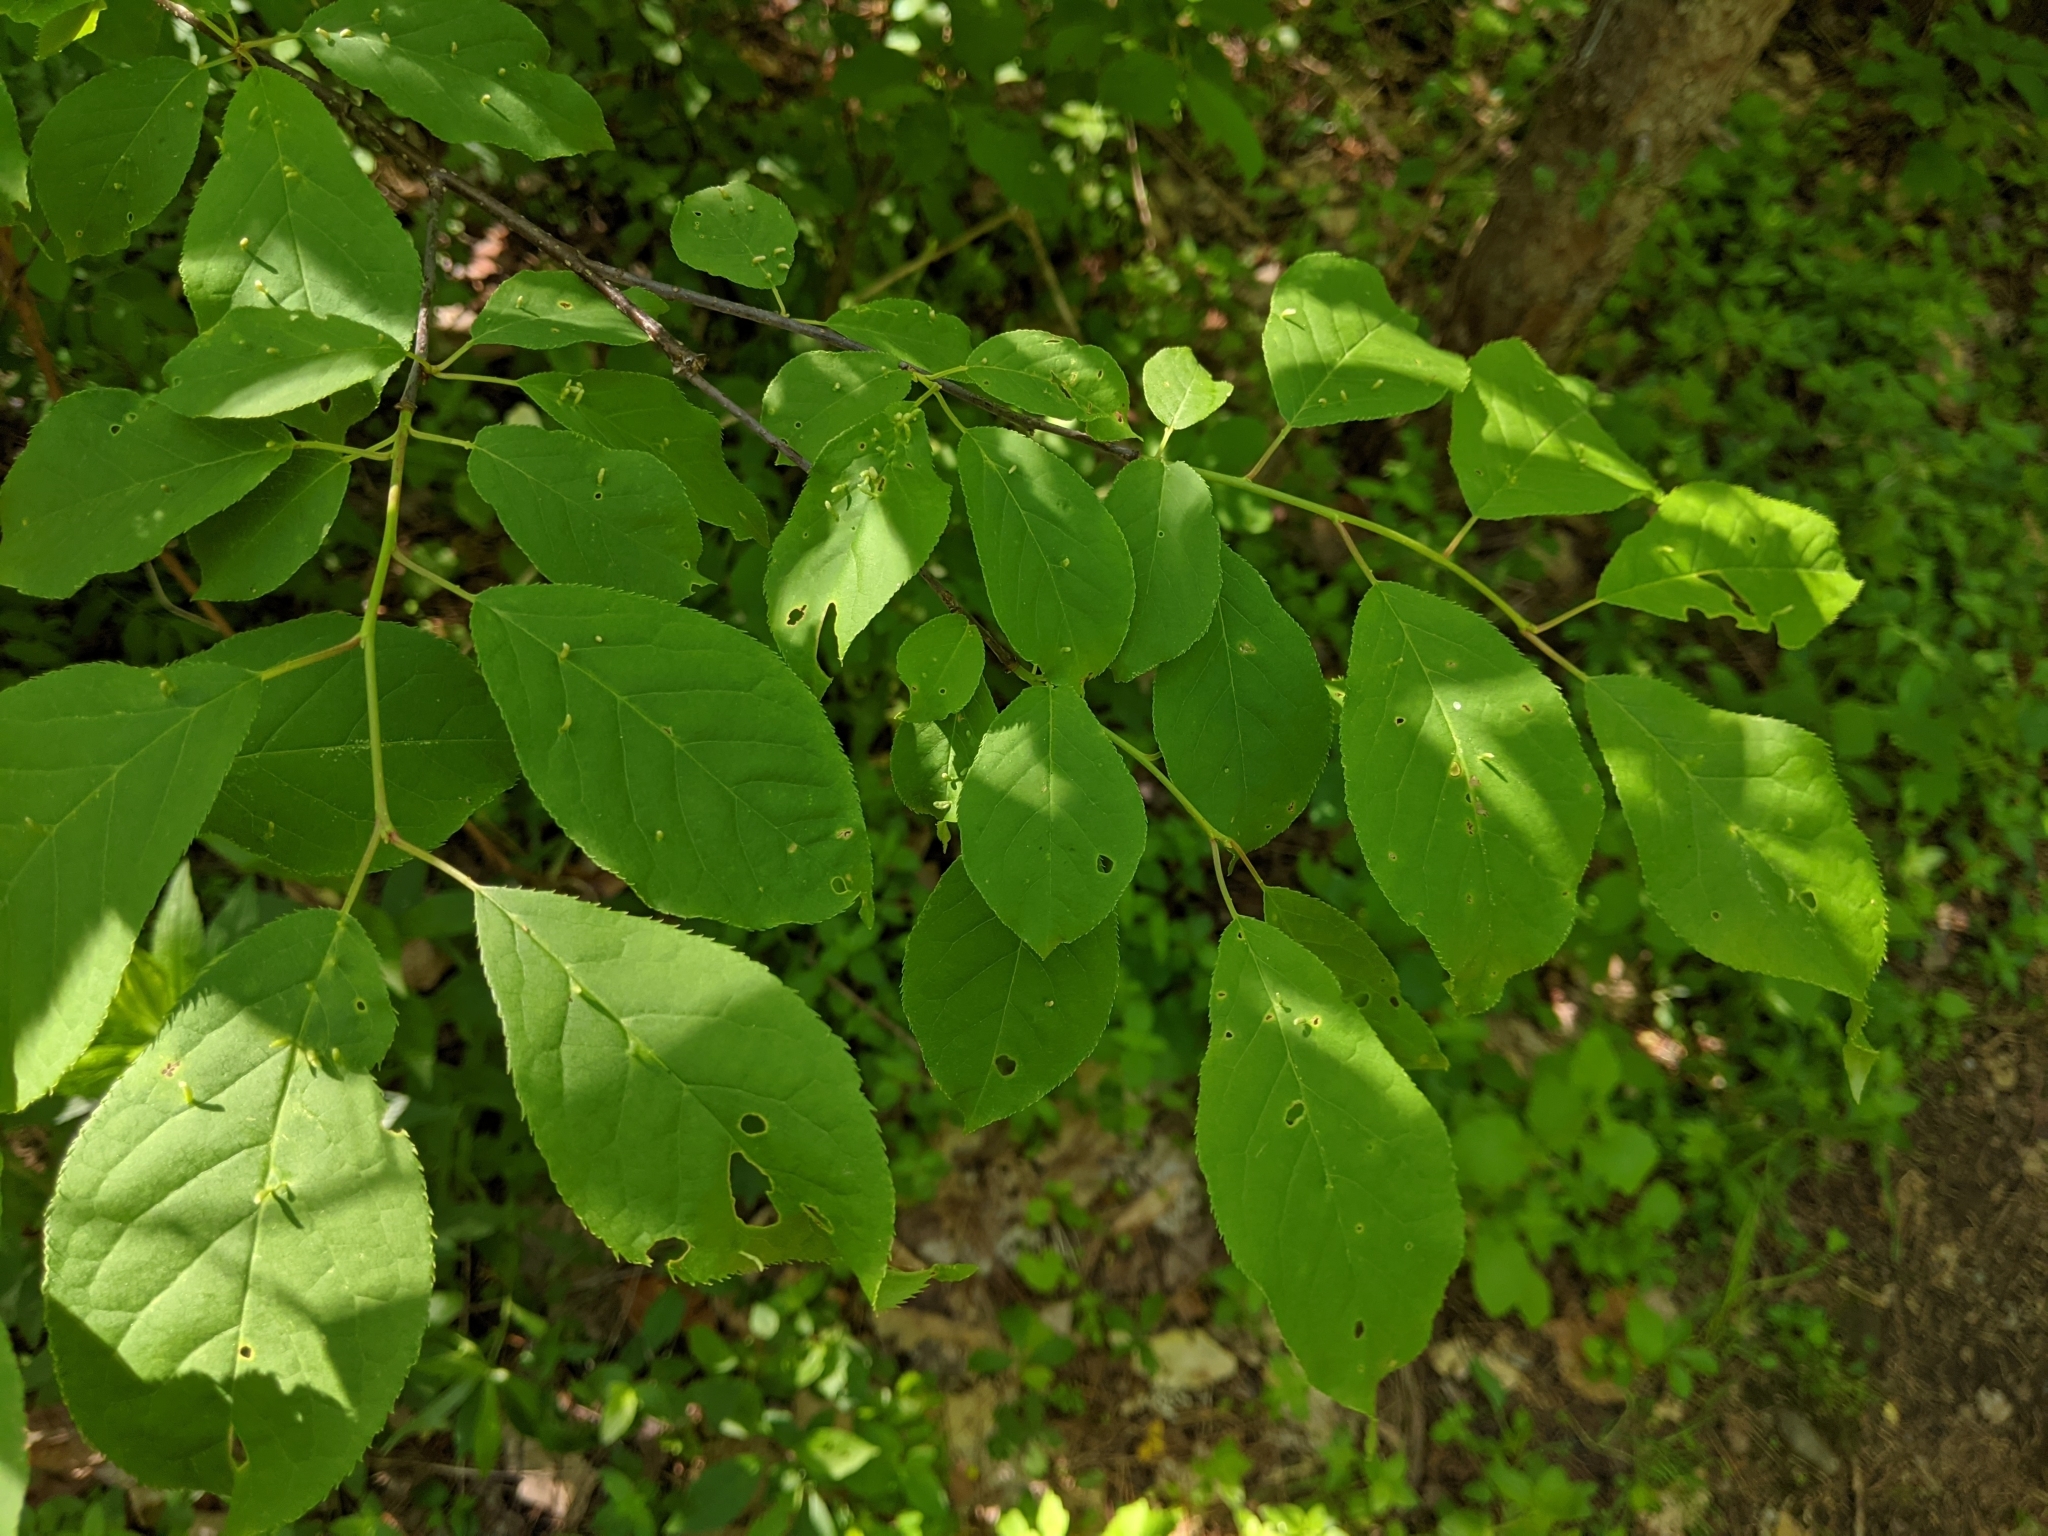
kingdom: Animalia
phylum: Arthropoda
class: Arachnida
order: Trombidiformes
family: Eriophyidae
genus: Eriophyes
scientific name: Eriophyes emarginatae
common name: Plum leaf gall mite
